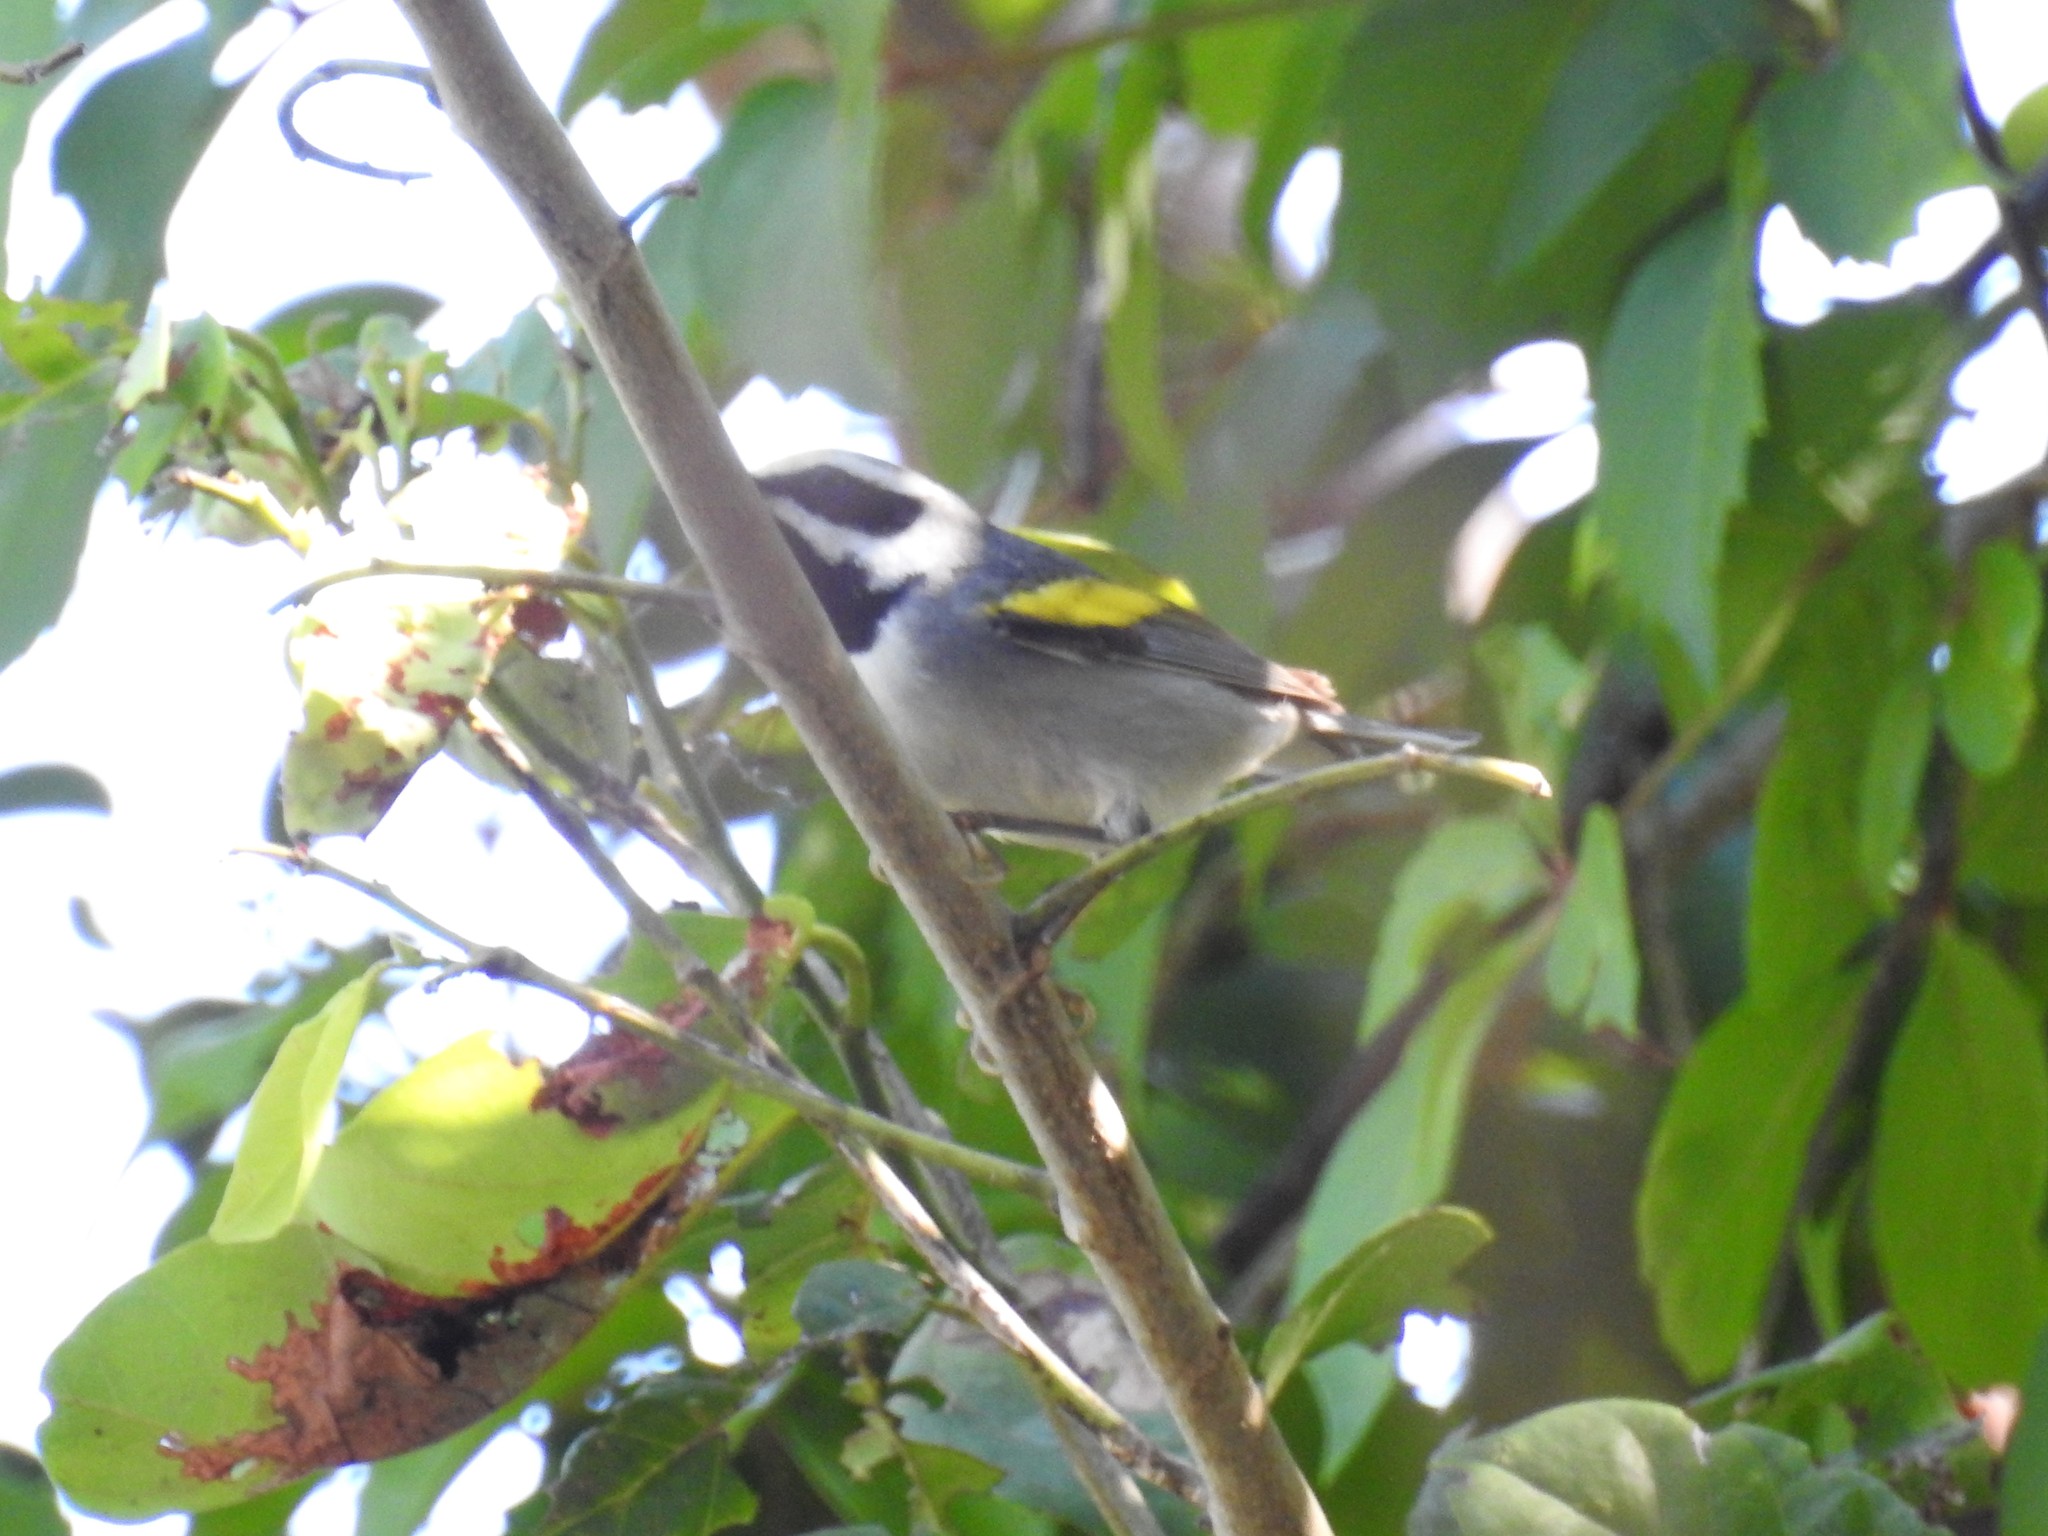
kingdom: Animalia
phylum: Chordata
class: Aves
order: Passeriformes
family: Parulidae
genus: Vermivora
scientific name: Vermivora chrysoptera
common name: Golden-winged warbler
